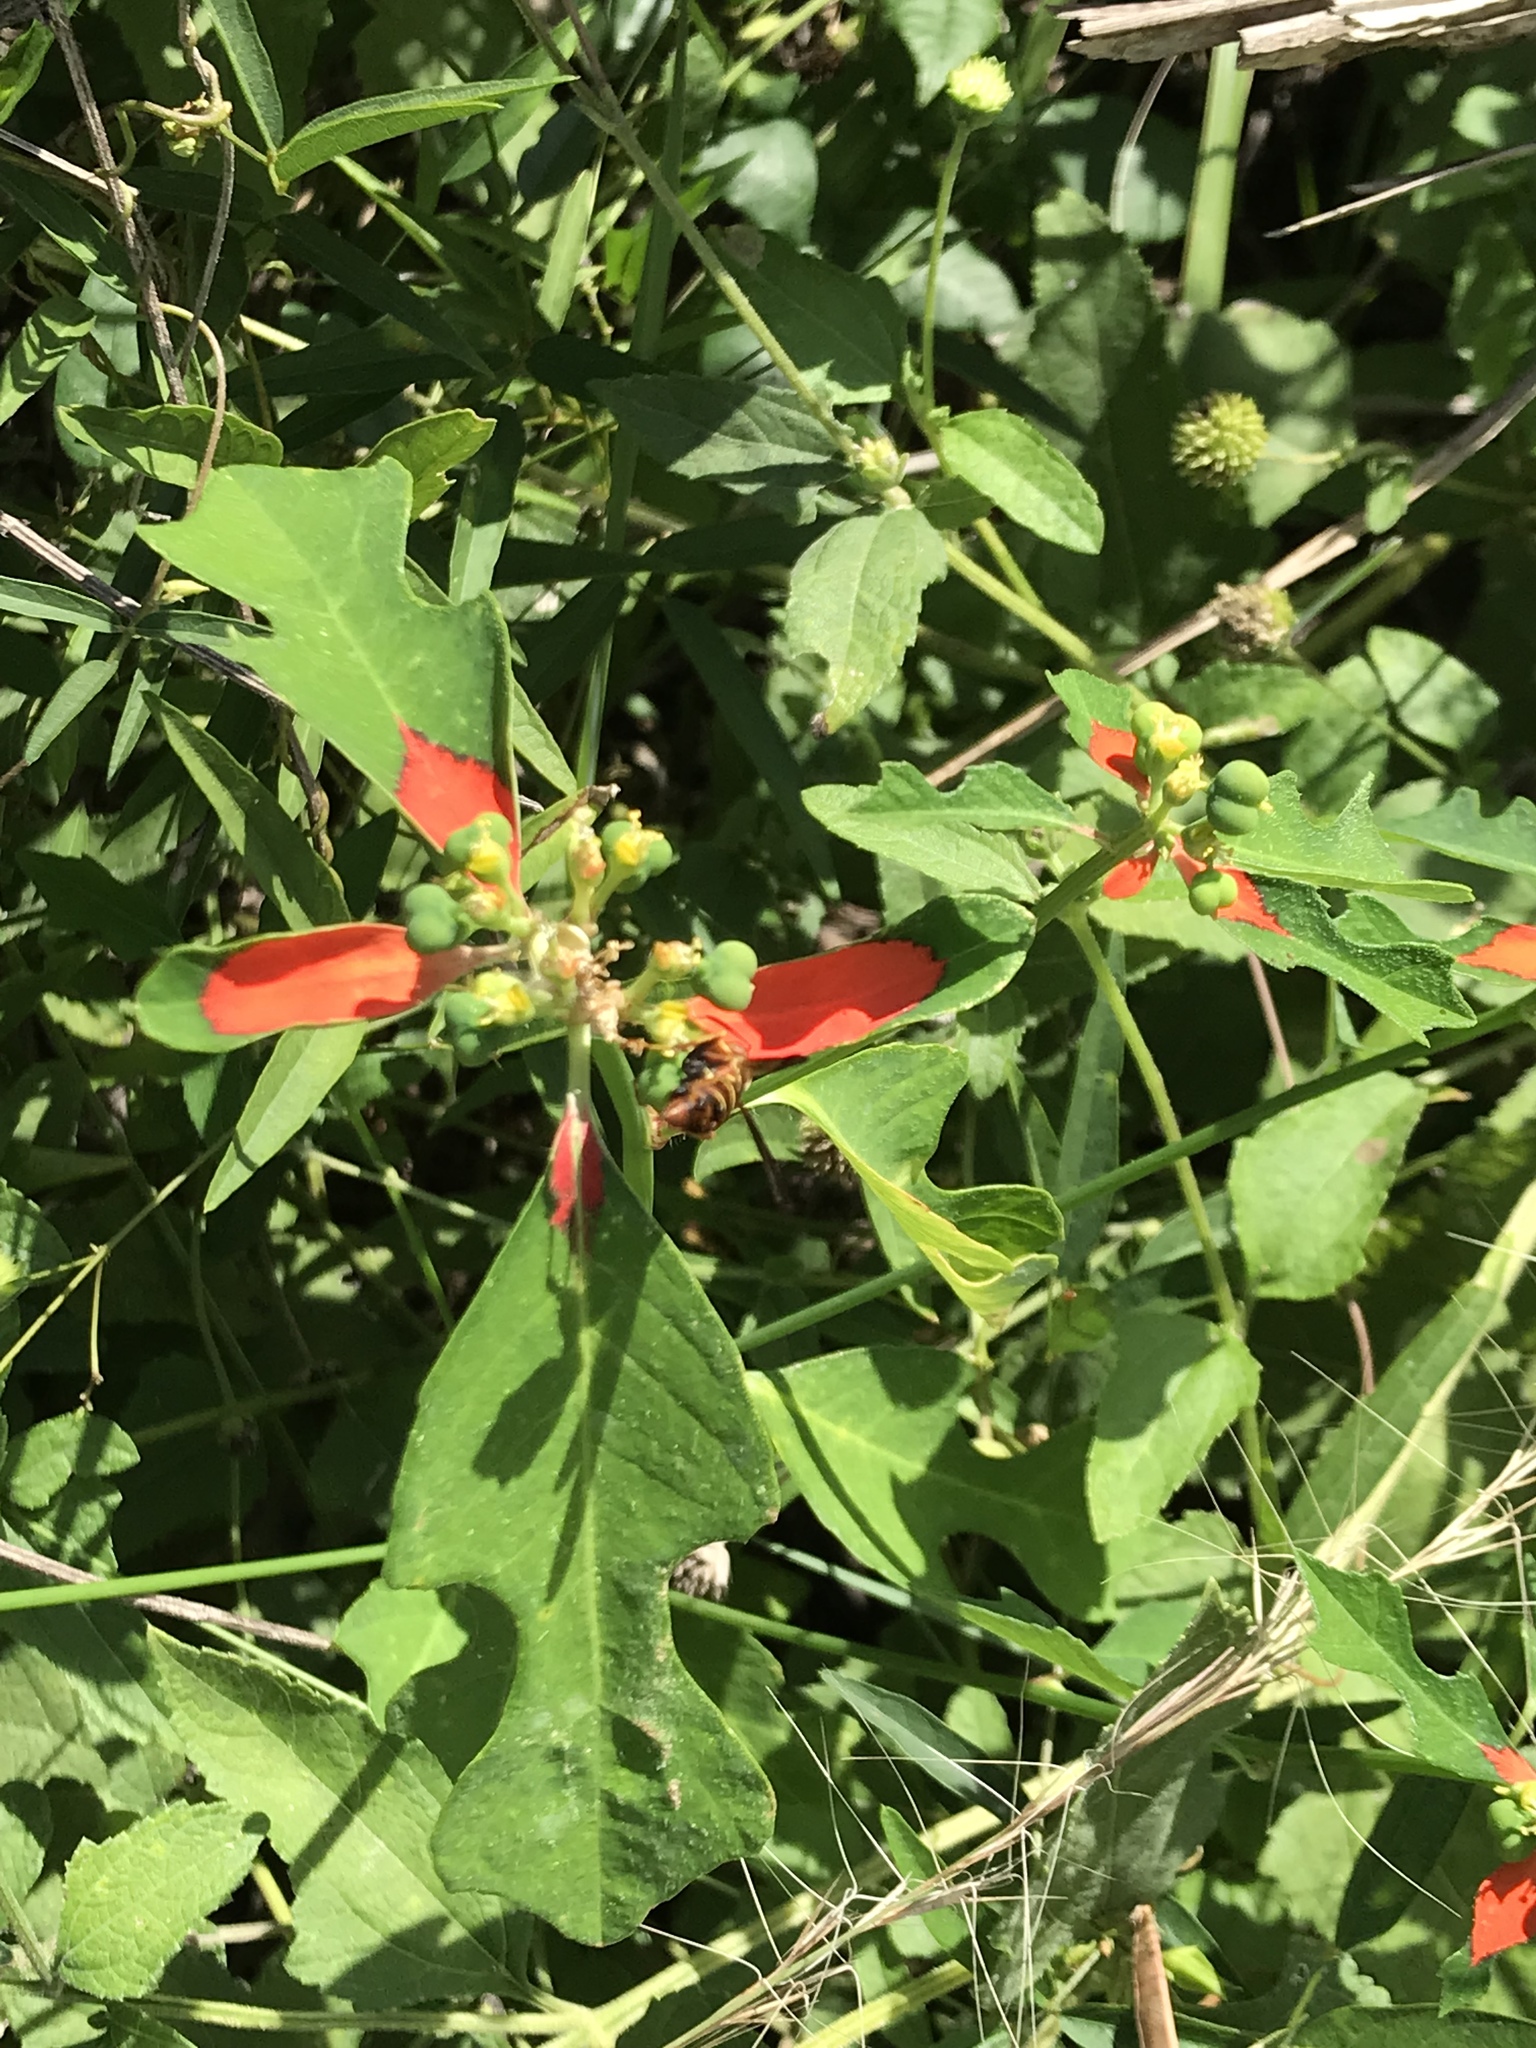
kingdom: Plantae
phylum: Tracheophyta
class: Magnoliopsida
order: Malpighiales
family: Euphorbiaceae
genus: Euphorbia
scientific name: Euphorbia heterophylla
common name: Mexican fireplant
